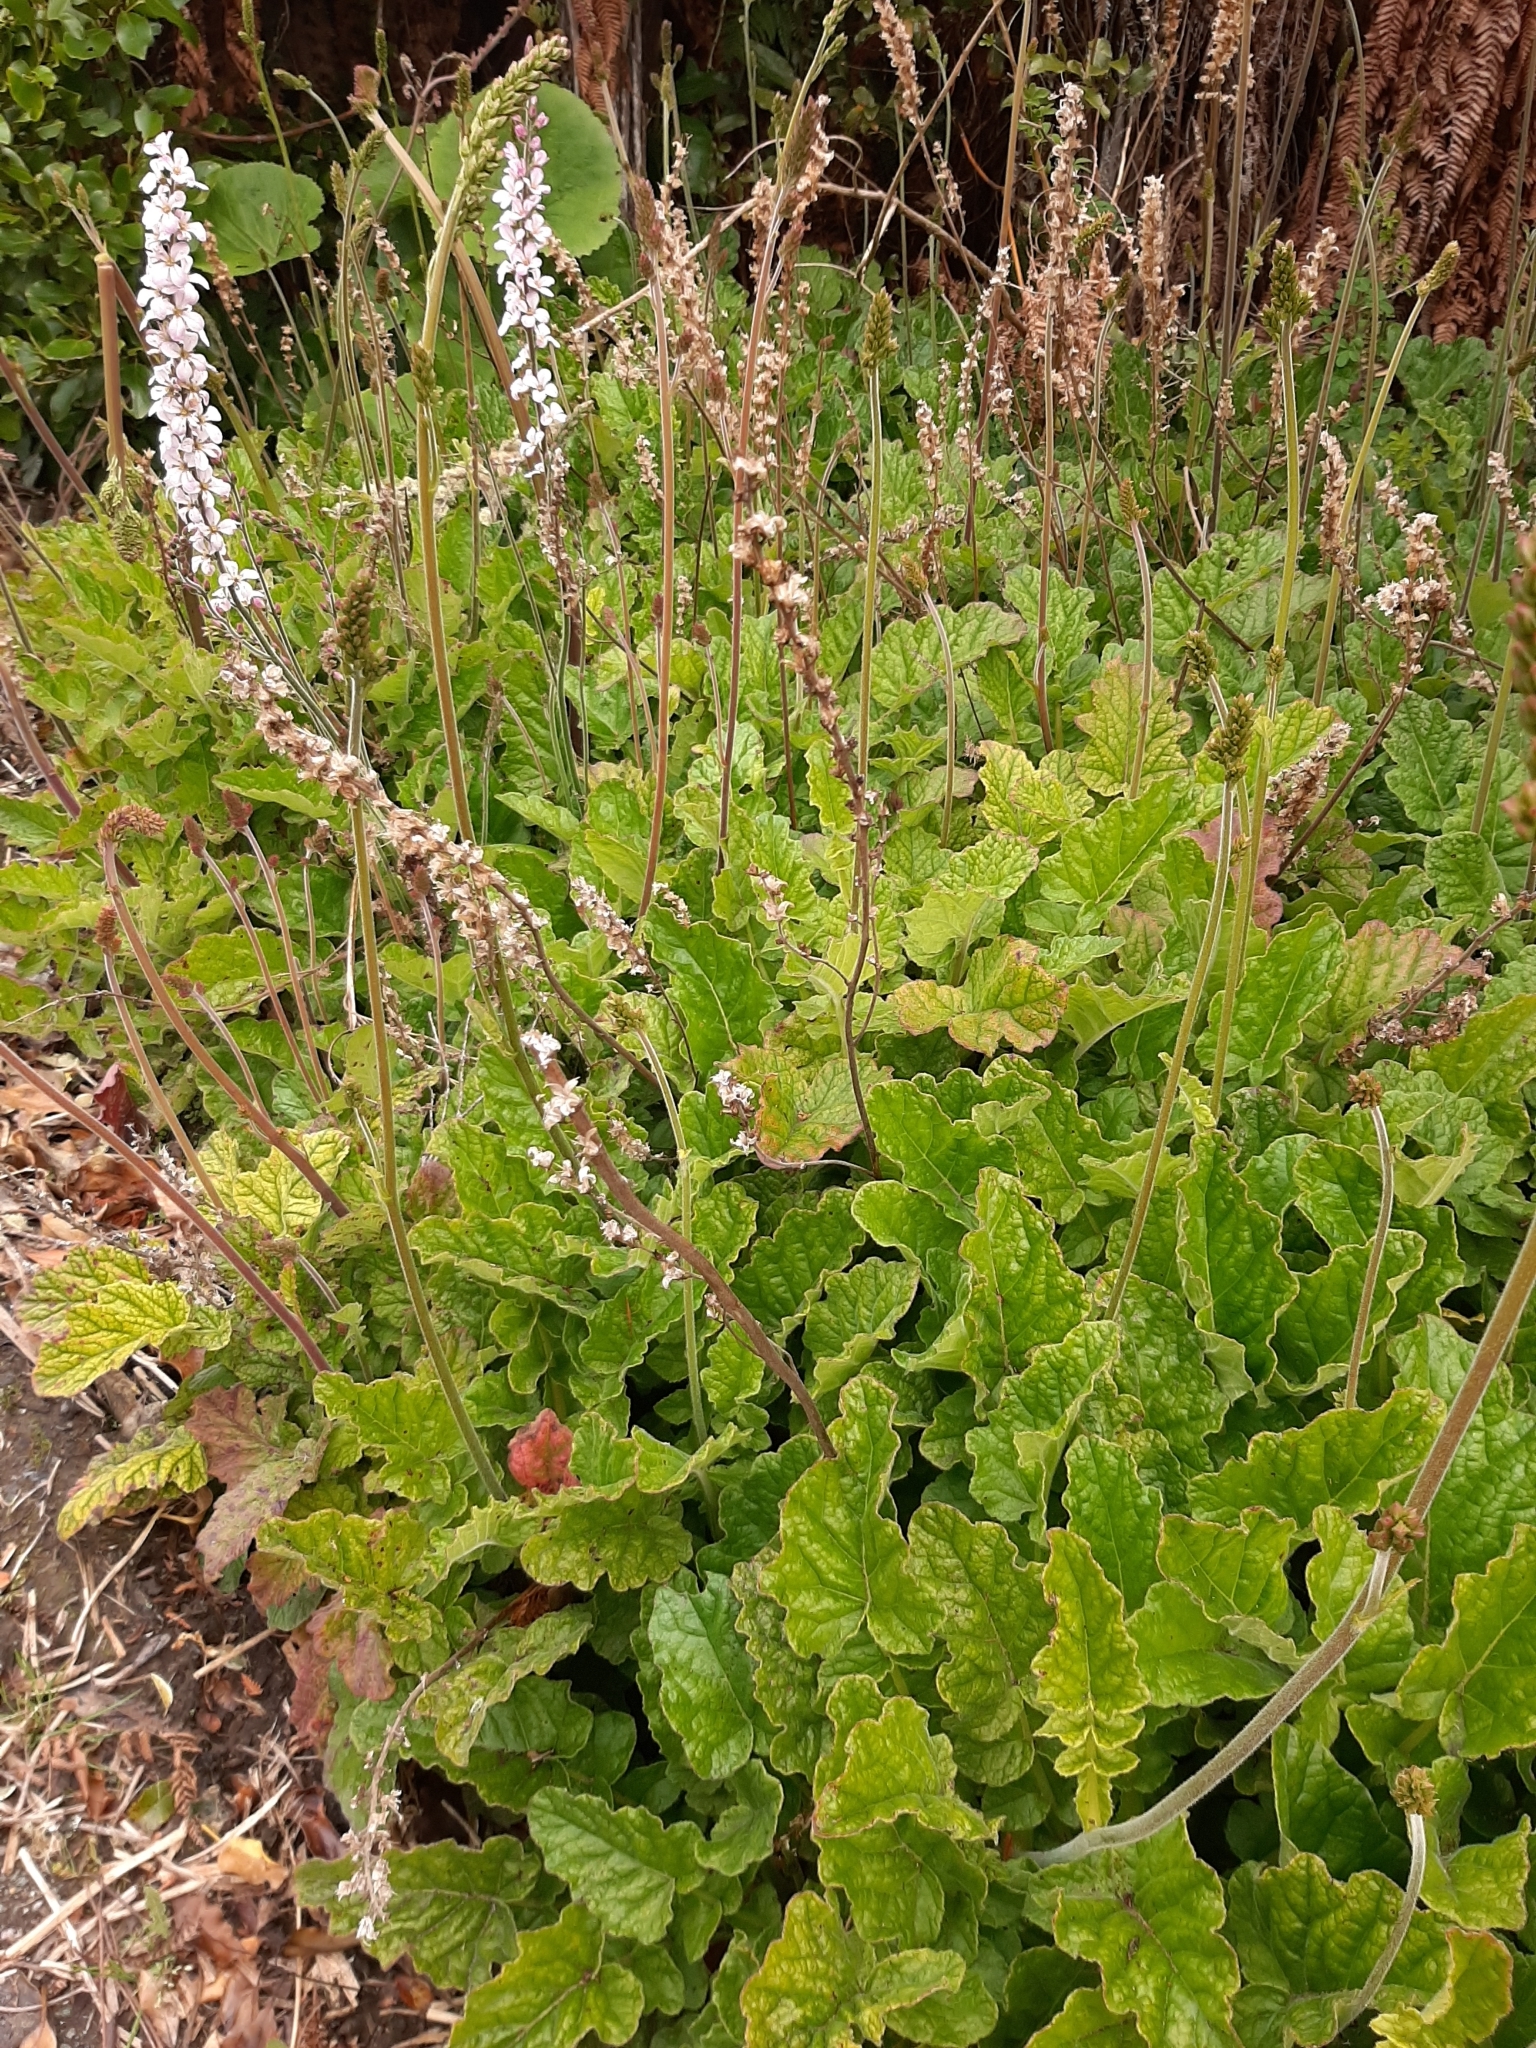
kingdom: Plantae
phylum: Tracheophyta
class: Magnoliopsida
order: Saxifragales
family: Saxifragaceae
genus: Heuchera
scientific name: Heuchera micrantha
